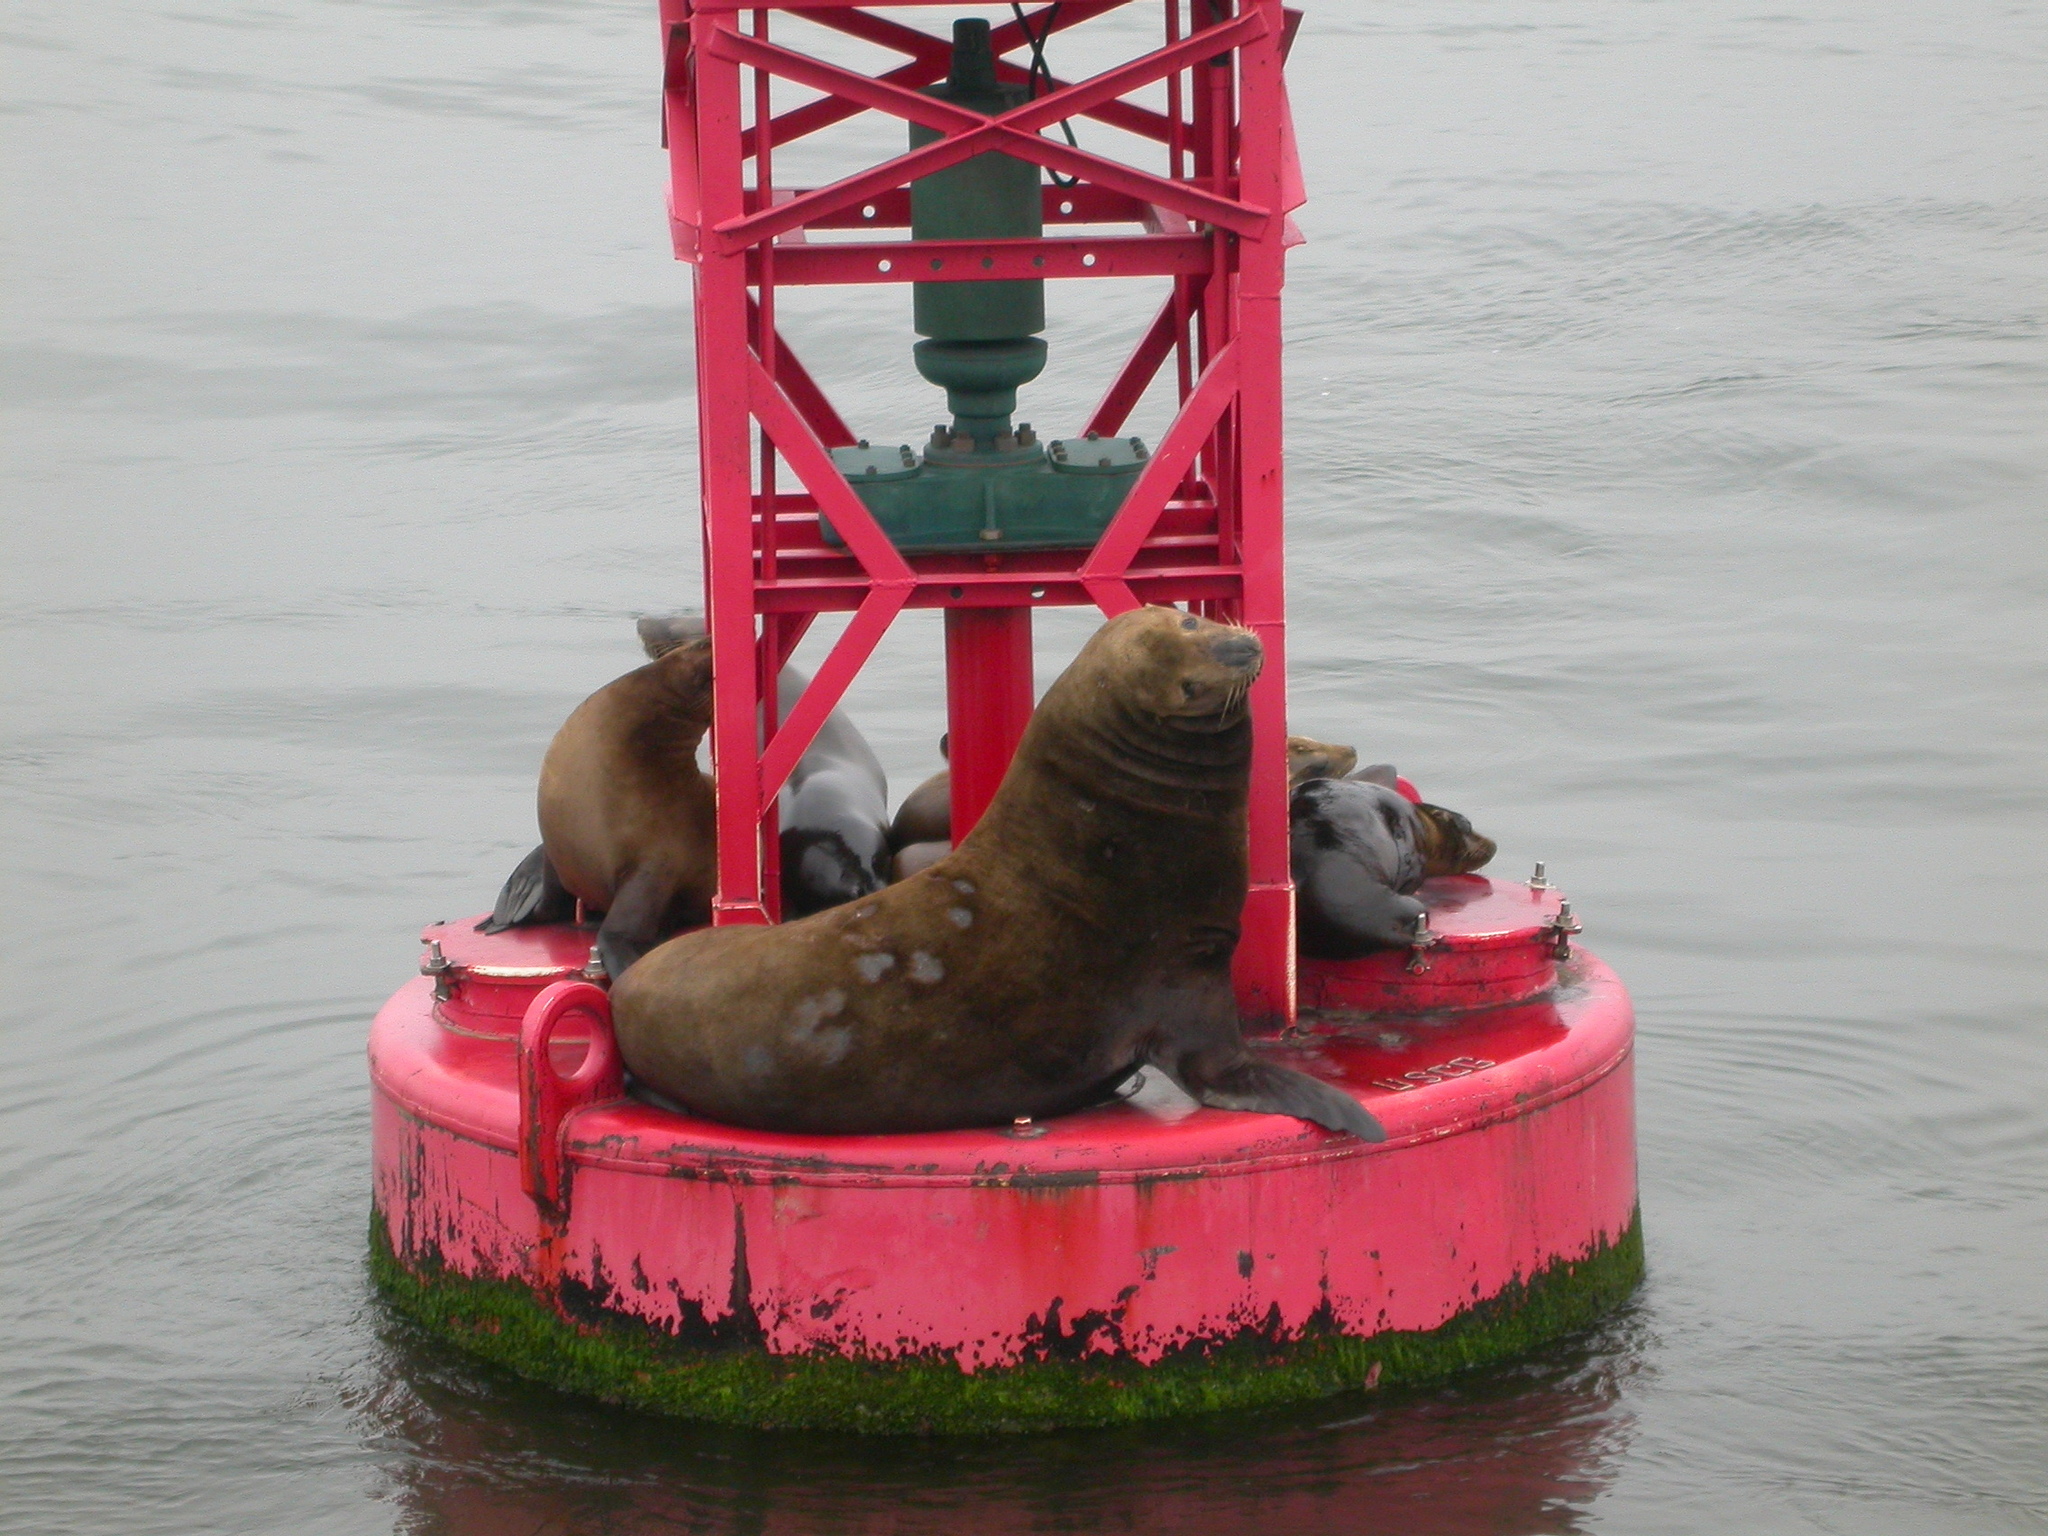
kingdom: Animalia
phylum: Chordata
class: Mammalia
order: Carnivora
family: Otariidae
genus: Zalophus
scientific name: Zalophus californianus
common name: California sea lion
